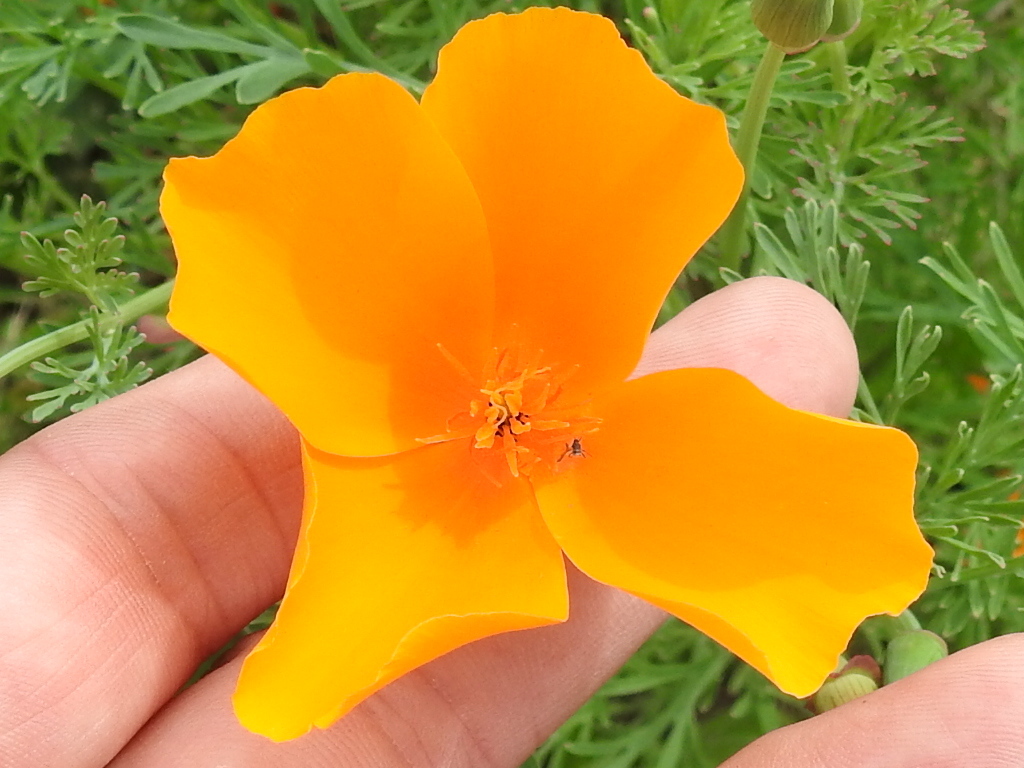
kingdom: Plantae
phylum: Tracheophyta
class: Magnoliopsida
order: Ranunculales
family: Papaveraceae
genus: Eschscholzia
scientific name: Eschscholzia californica
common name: California poppy
